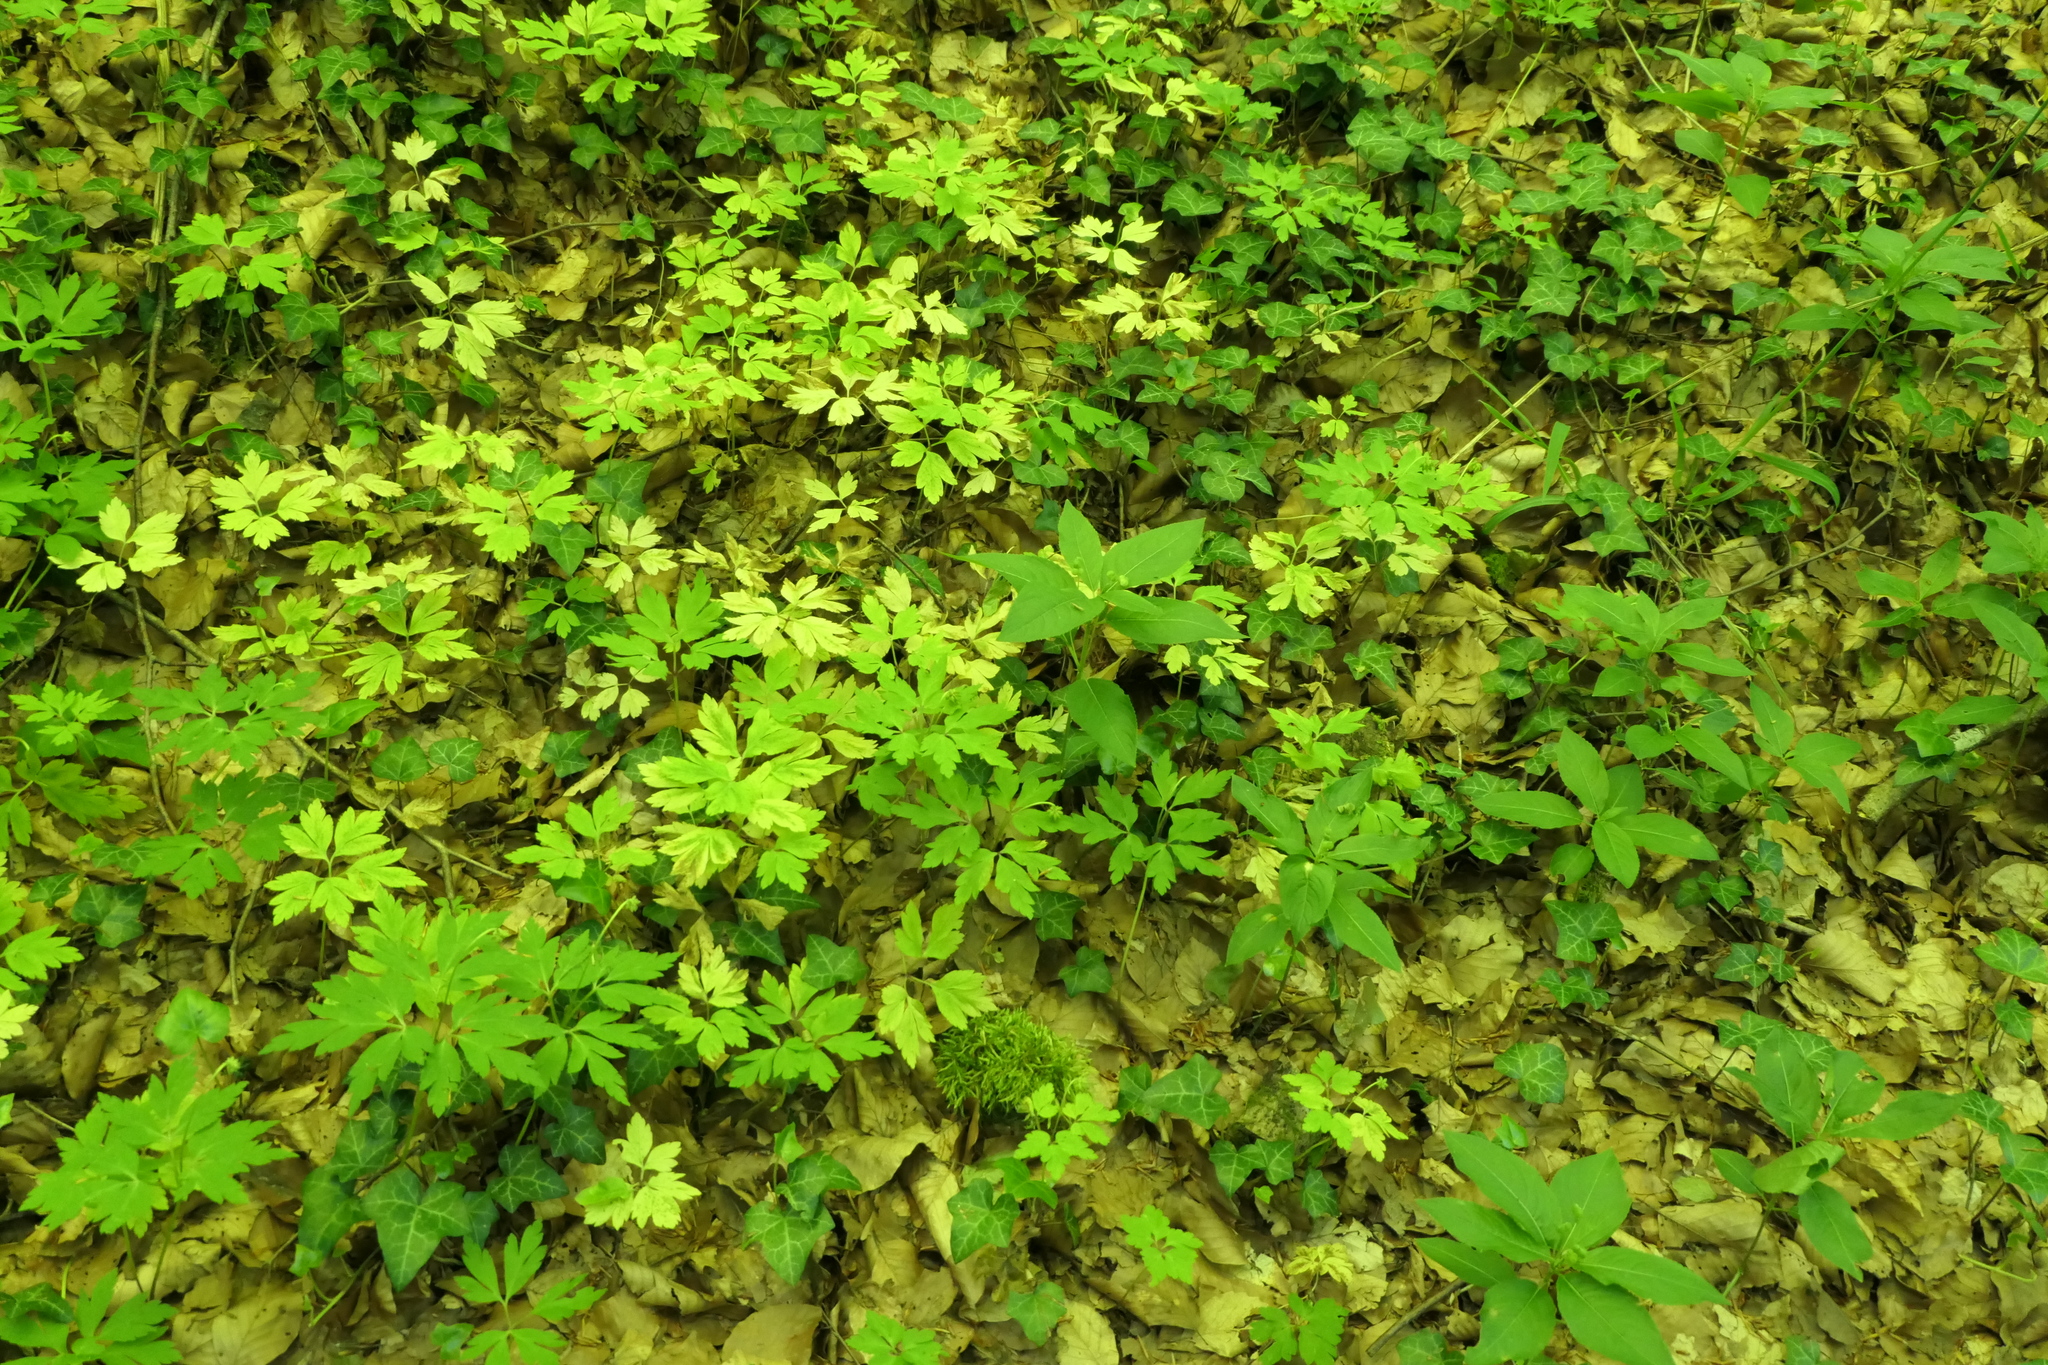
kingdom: Plantae
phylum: Tracheophyta
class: Magnoliopsida
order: Ranunculales
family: Ranunculaceae
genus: Anemone
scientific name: Anemone nemorosa
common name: Wood anemone
